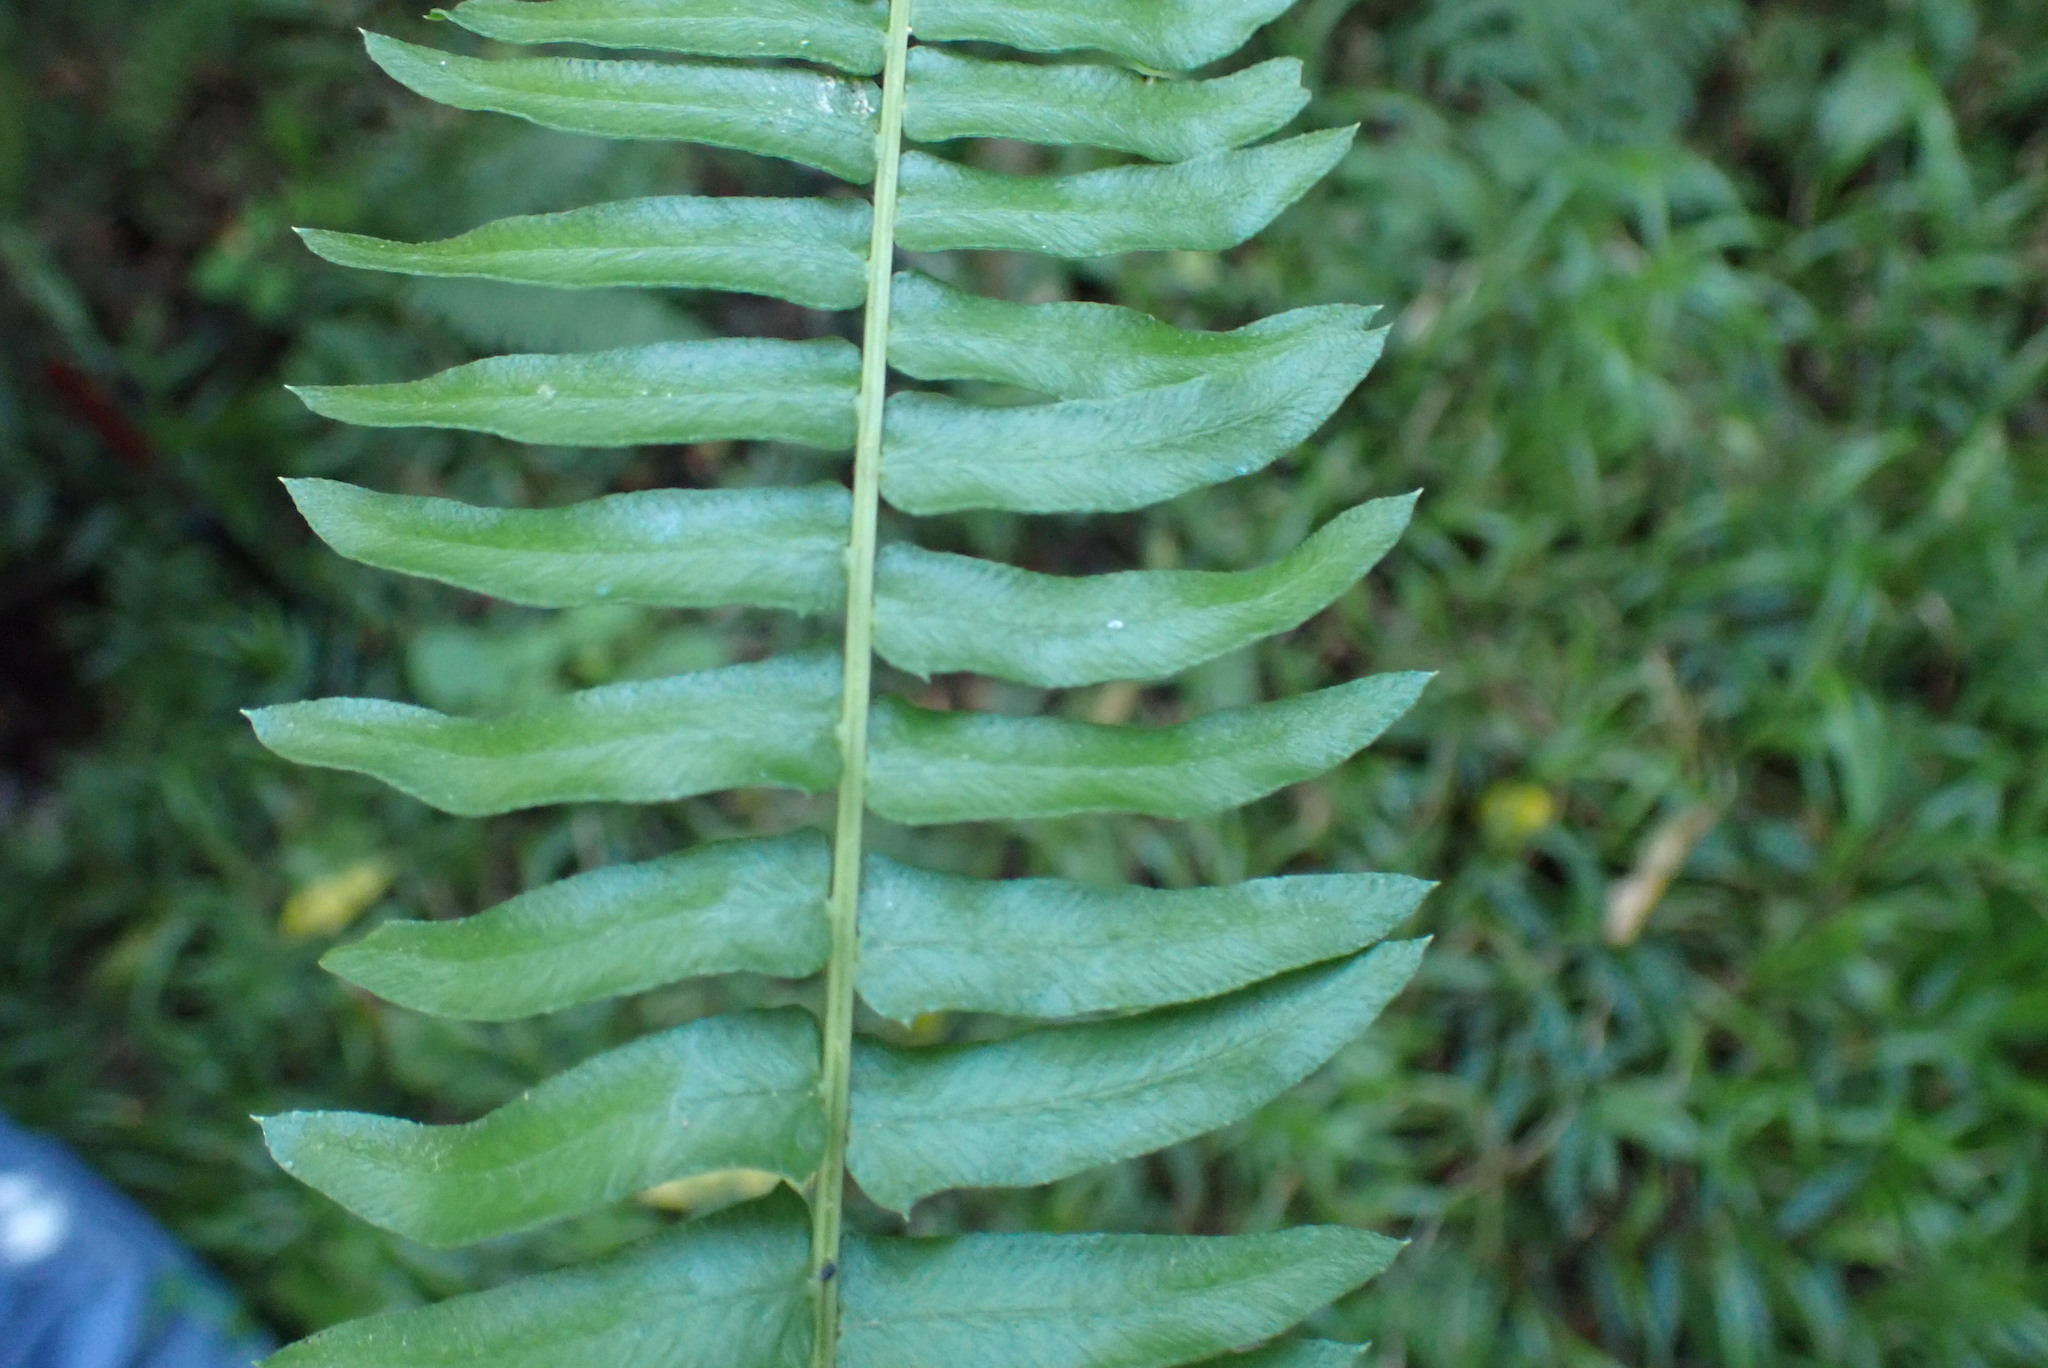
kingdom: Plantae
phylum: Tracheophyta
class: Polypodiopsida
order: Polypodiales
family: Blechnaceae
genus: Blechnum
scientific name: Blechnum punctulatum
